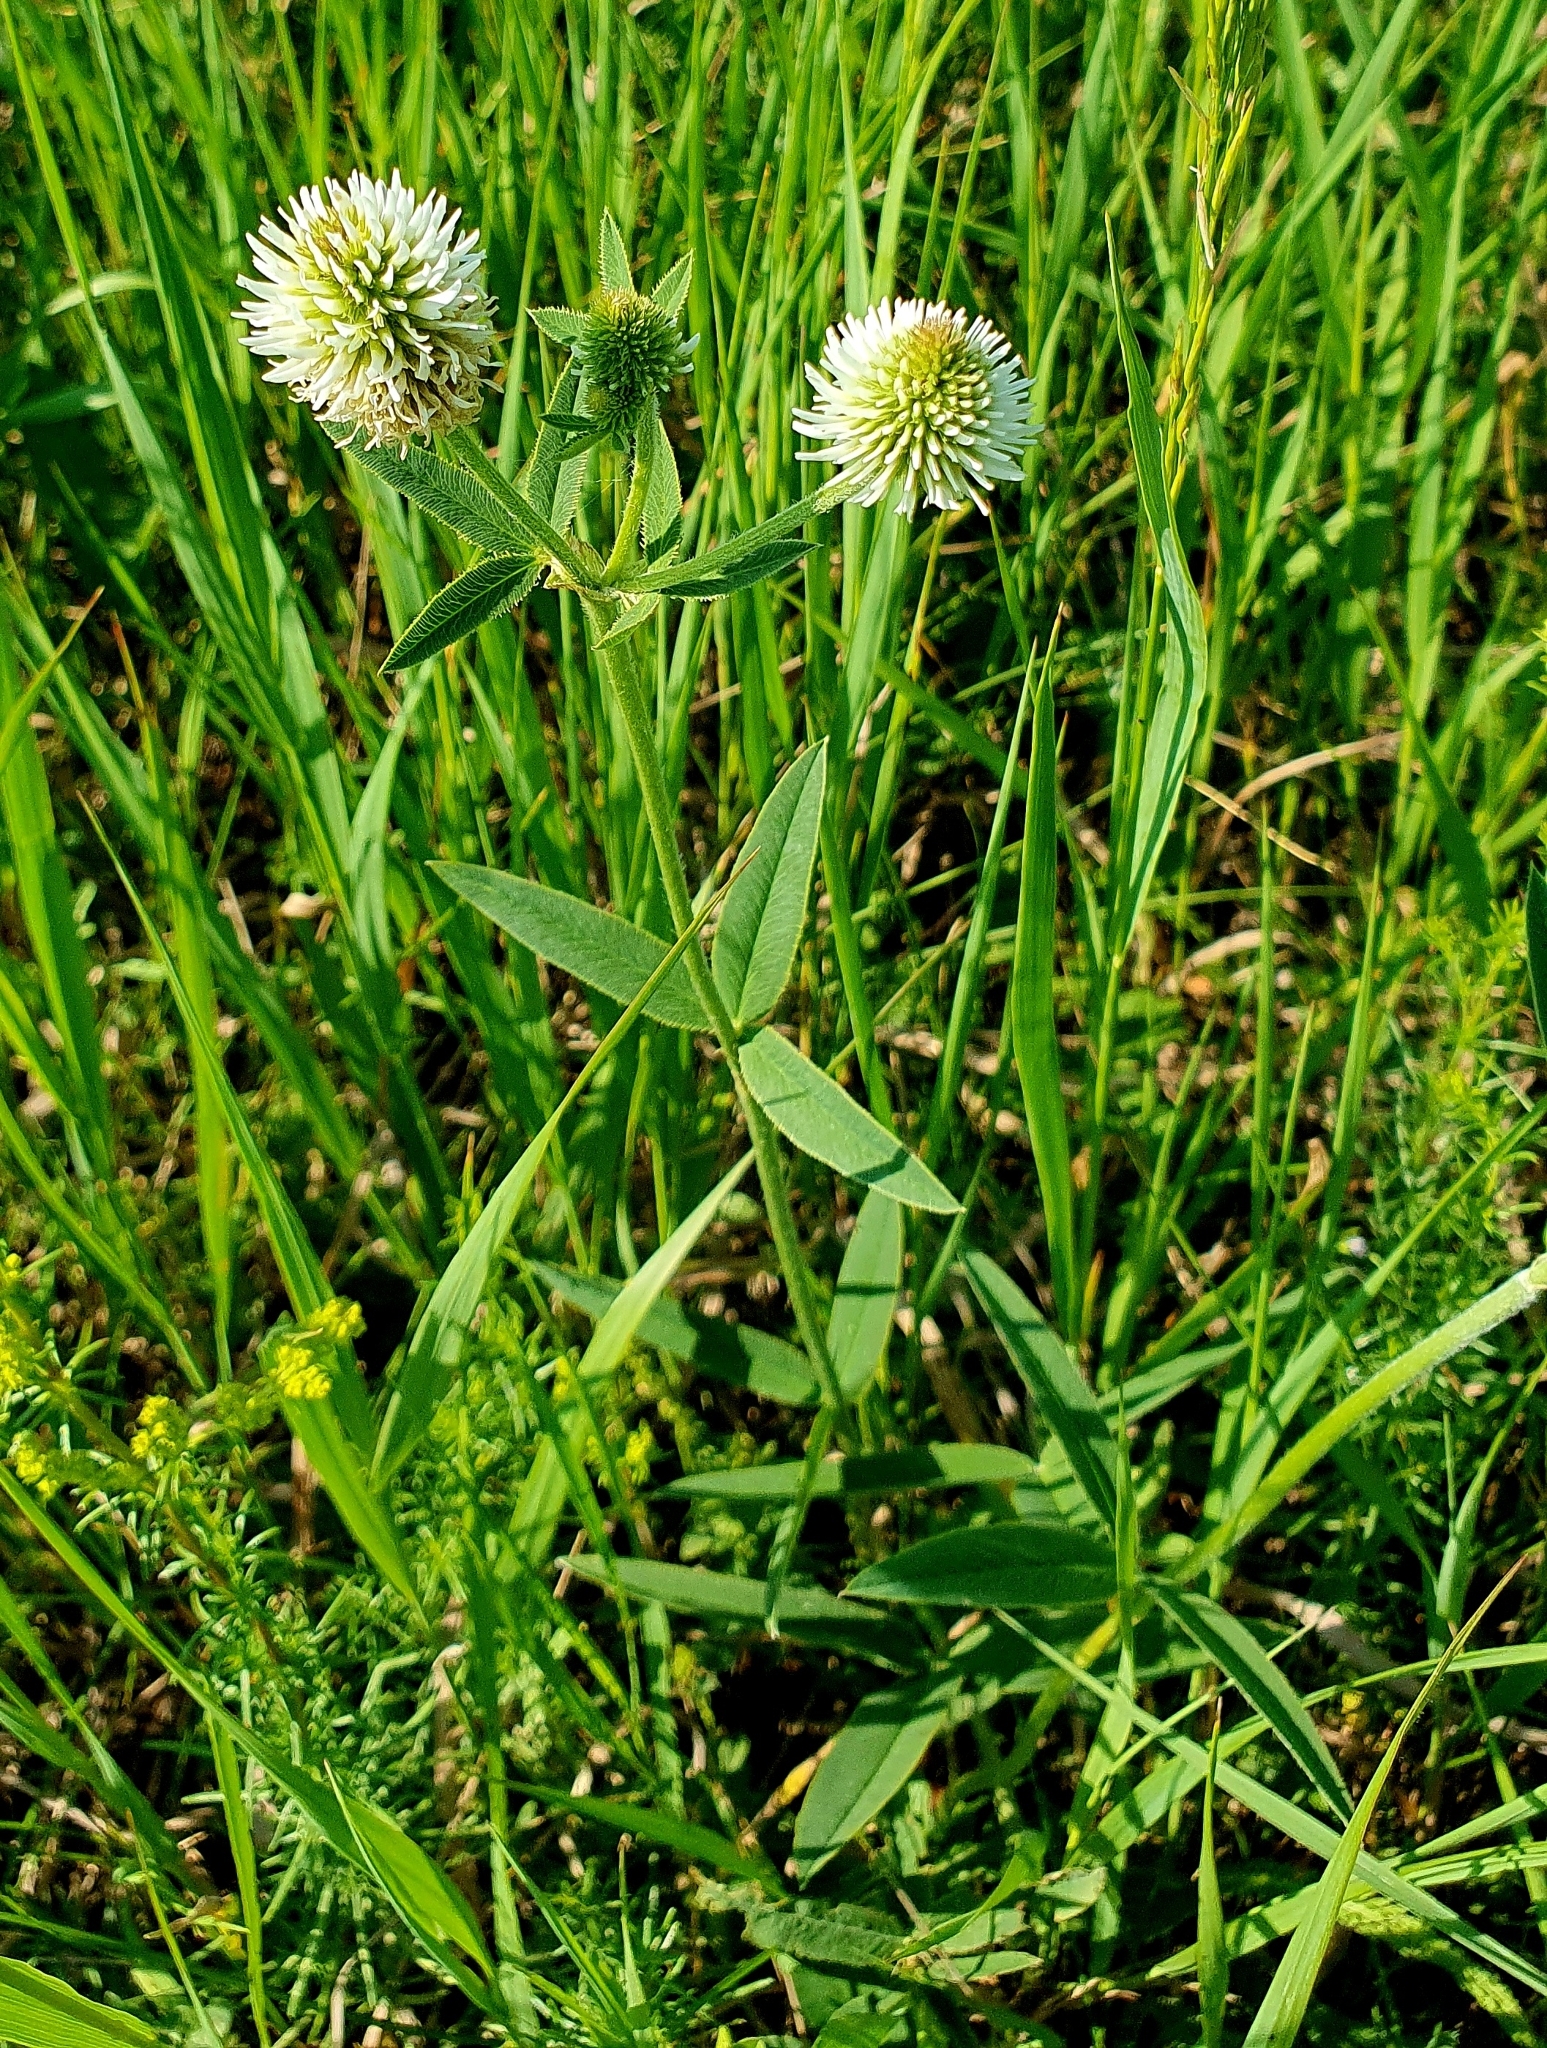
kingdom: Plantae
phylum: Tracheophyta
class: Magnoliopsida
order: Fabales
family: Fabaceae
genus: Trifolium
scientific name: Trifolium montanum
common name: Mountain clover
